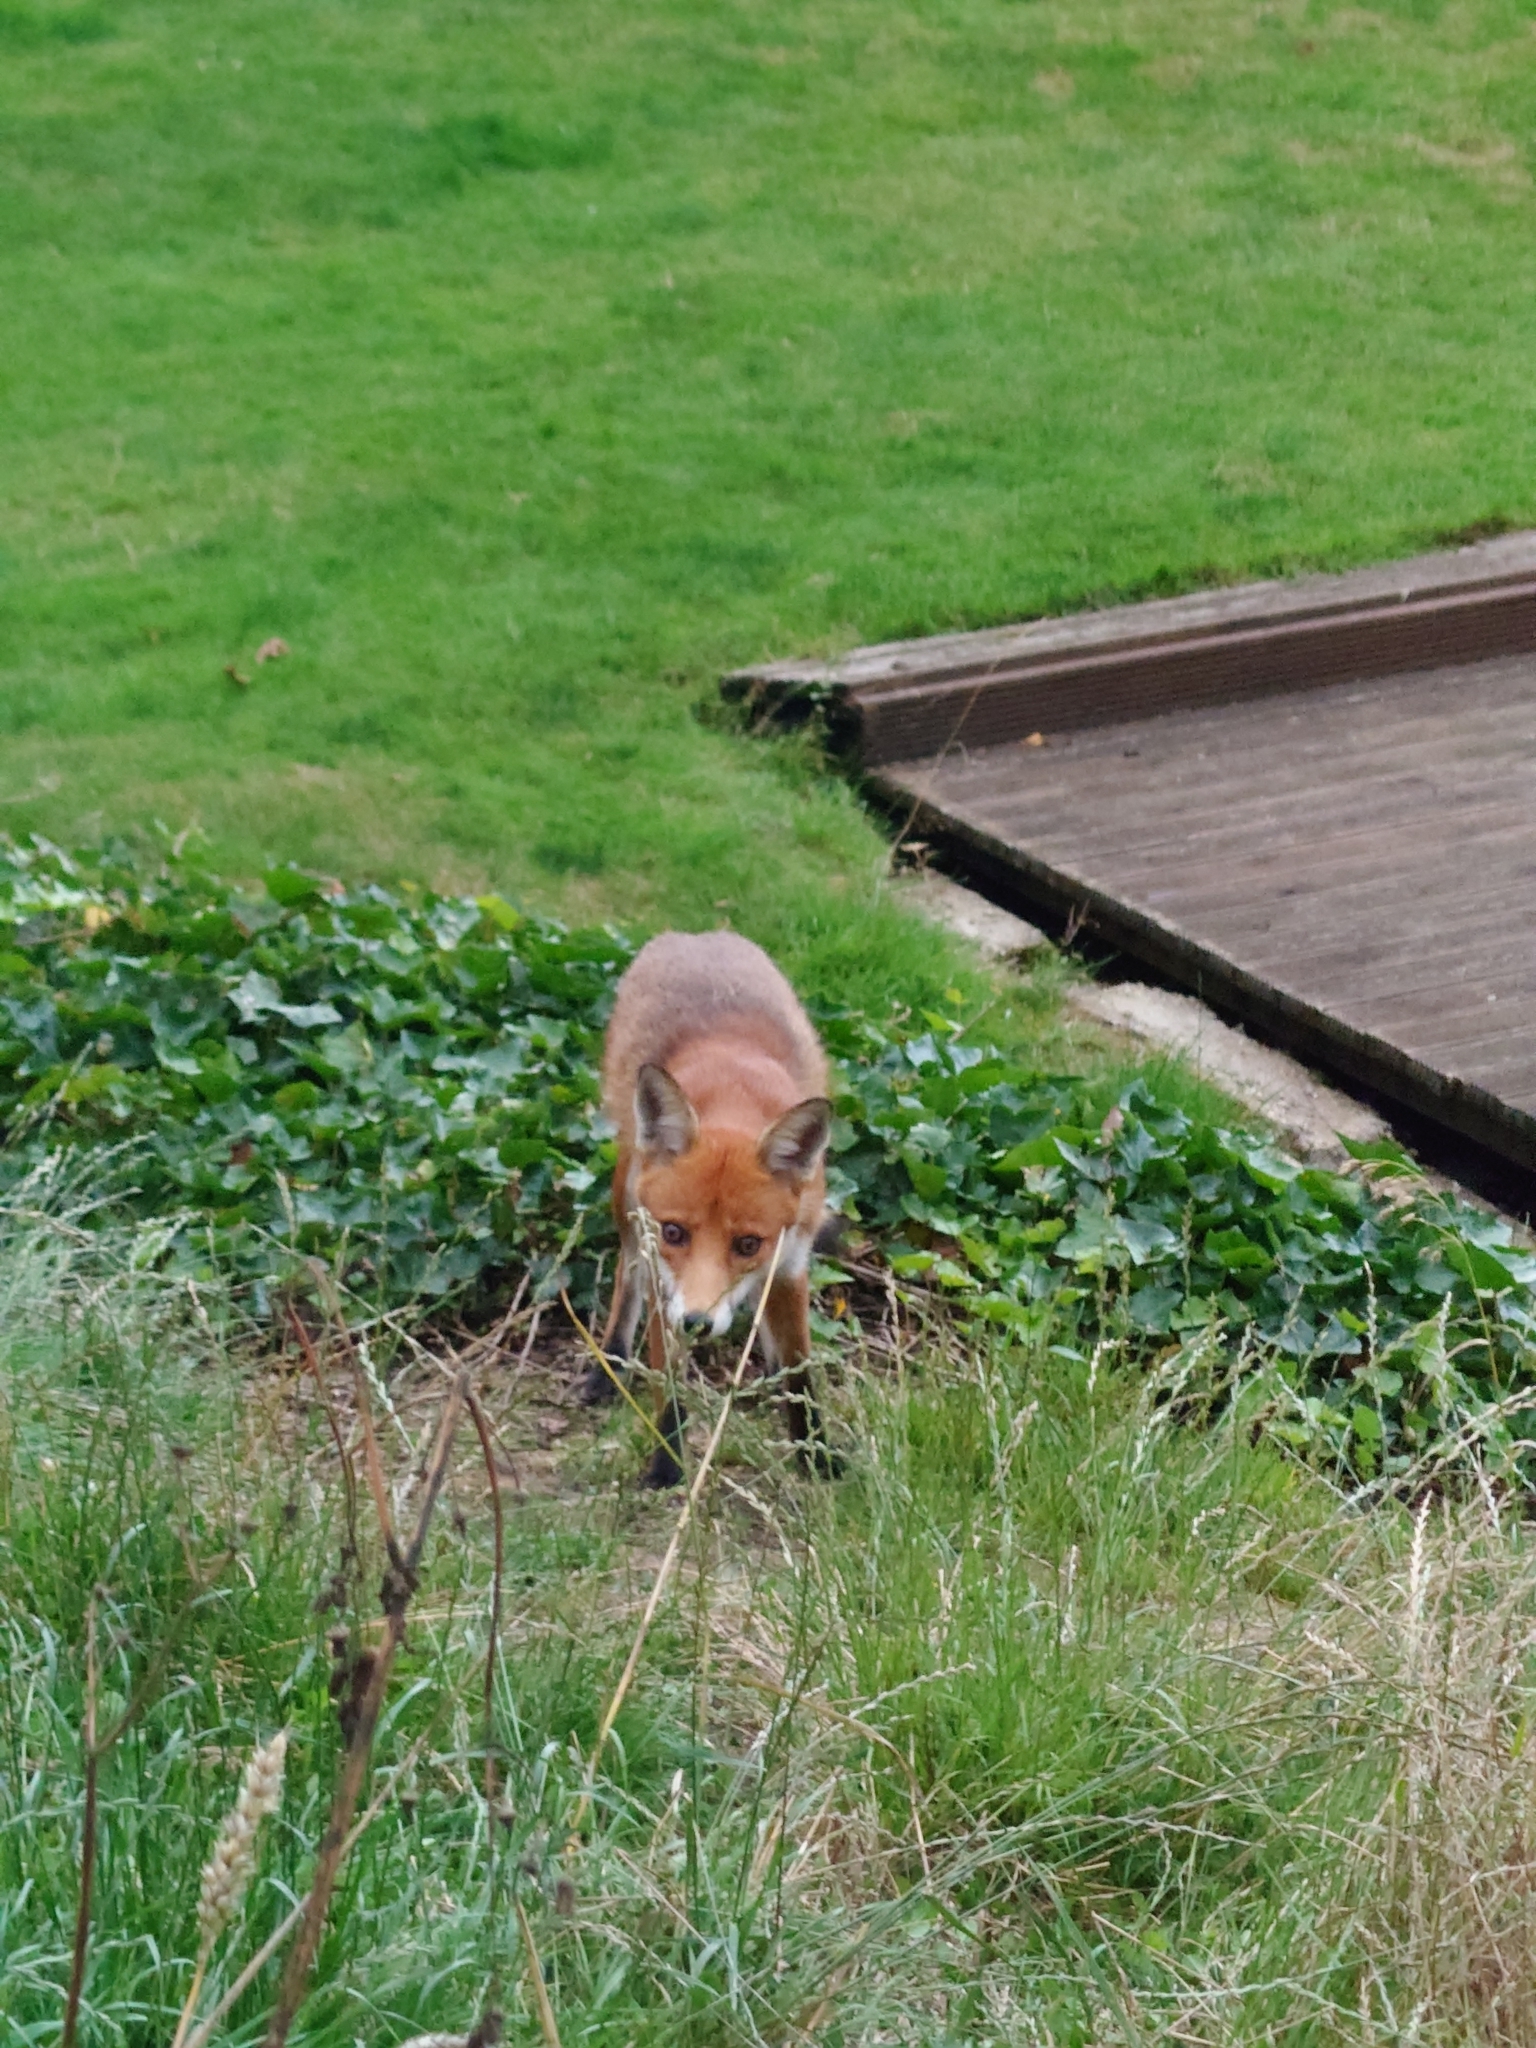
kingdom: Animalia
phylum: Chordata
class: Mammalia
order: Carnivora
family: Canidae
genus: Vulpes
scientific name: Vulpes vulpes
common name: Red fox
